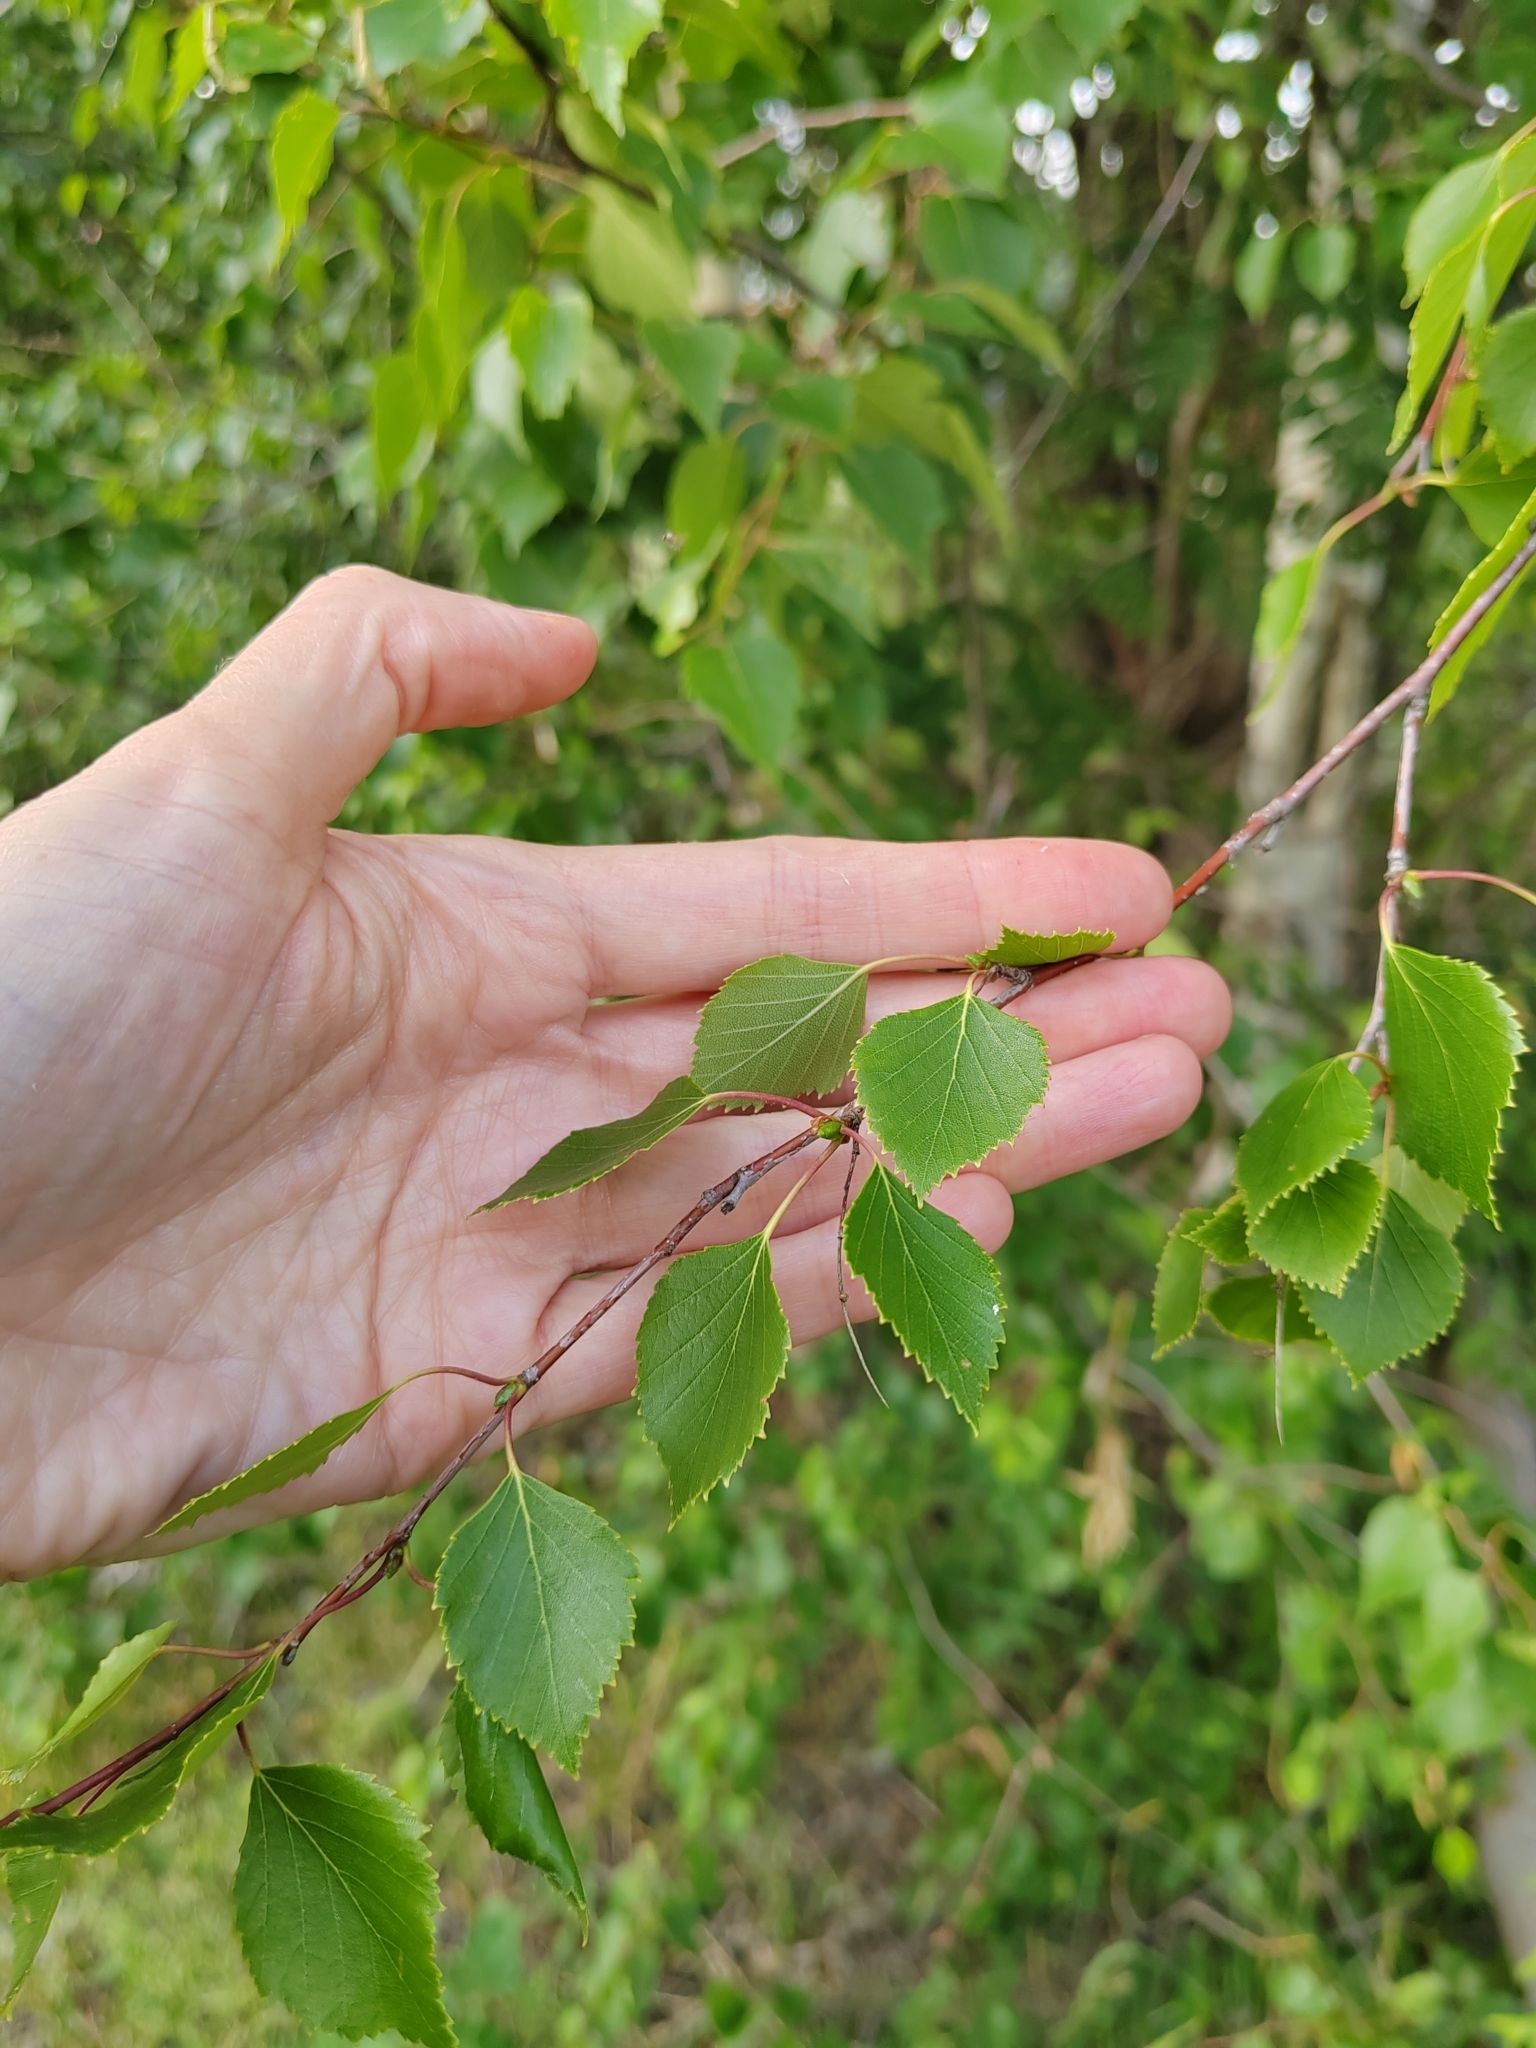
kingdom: Plantae
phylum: Tracheophyta
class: Magnoliopsida
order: Fagales
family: Betulaceae
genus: Betula
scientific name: Betula pendula
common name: Silver birch
